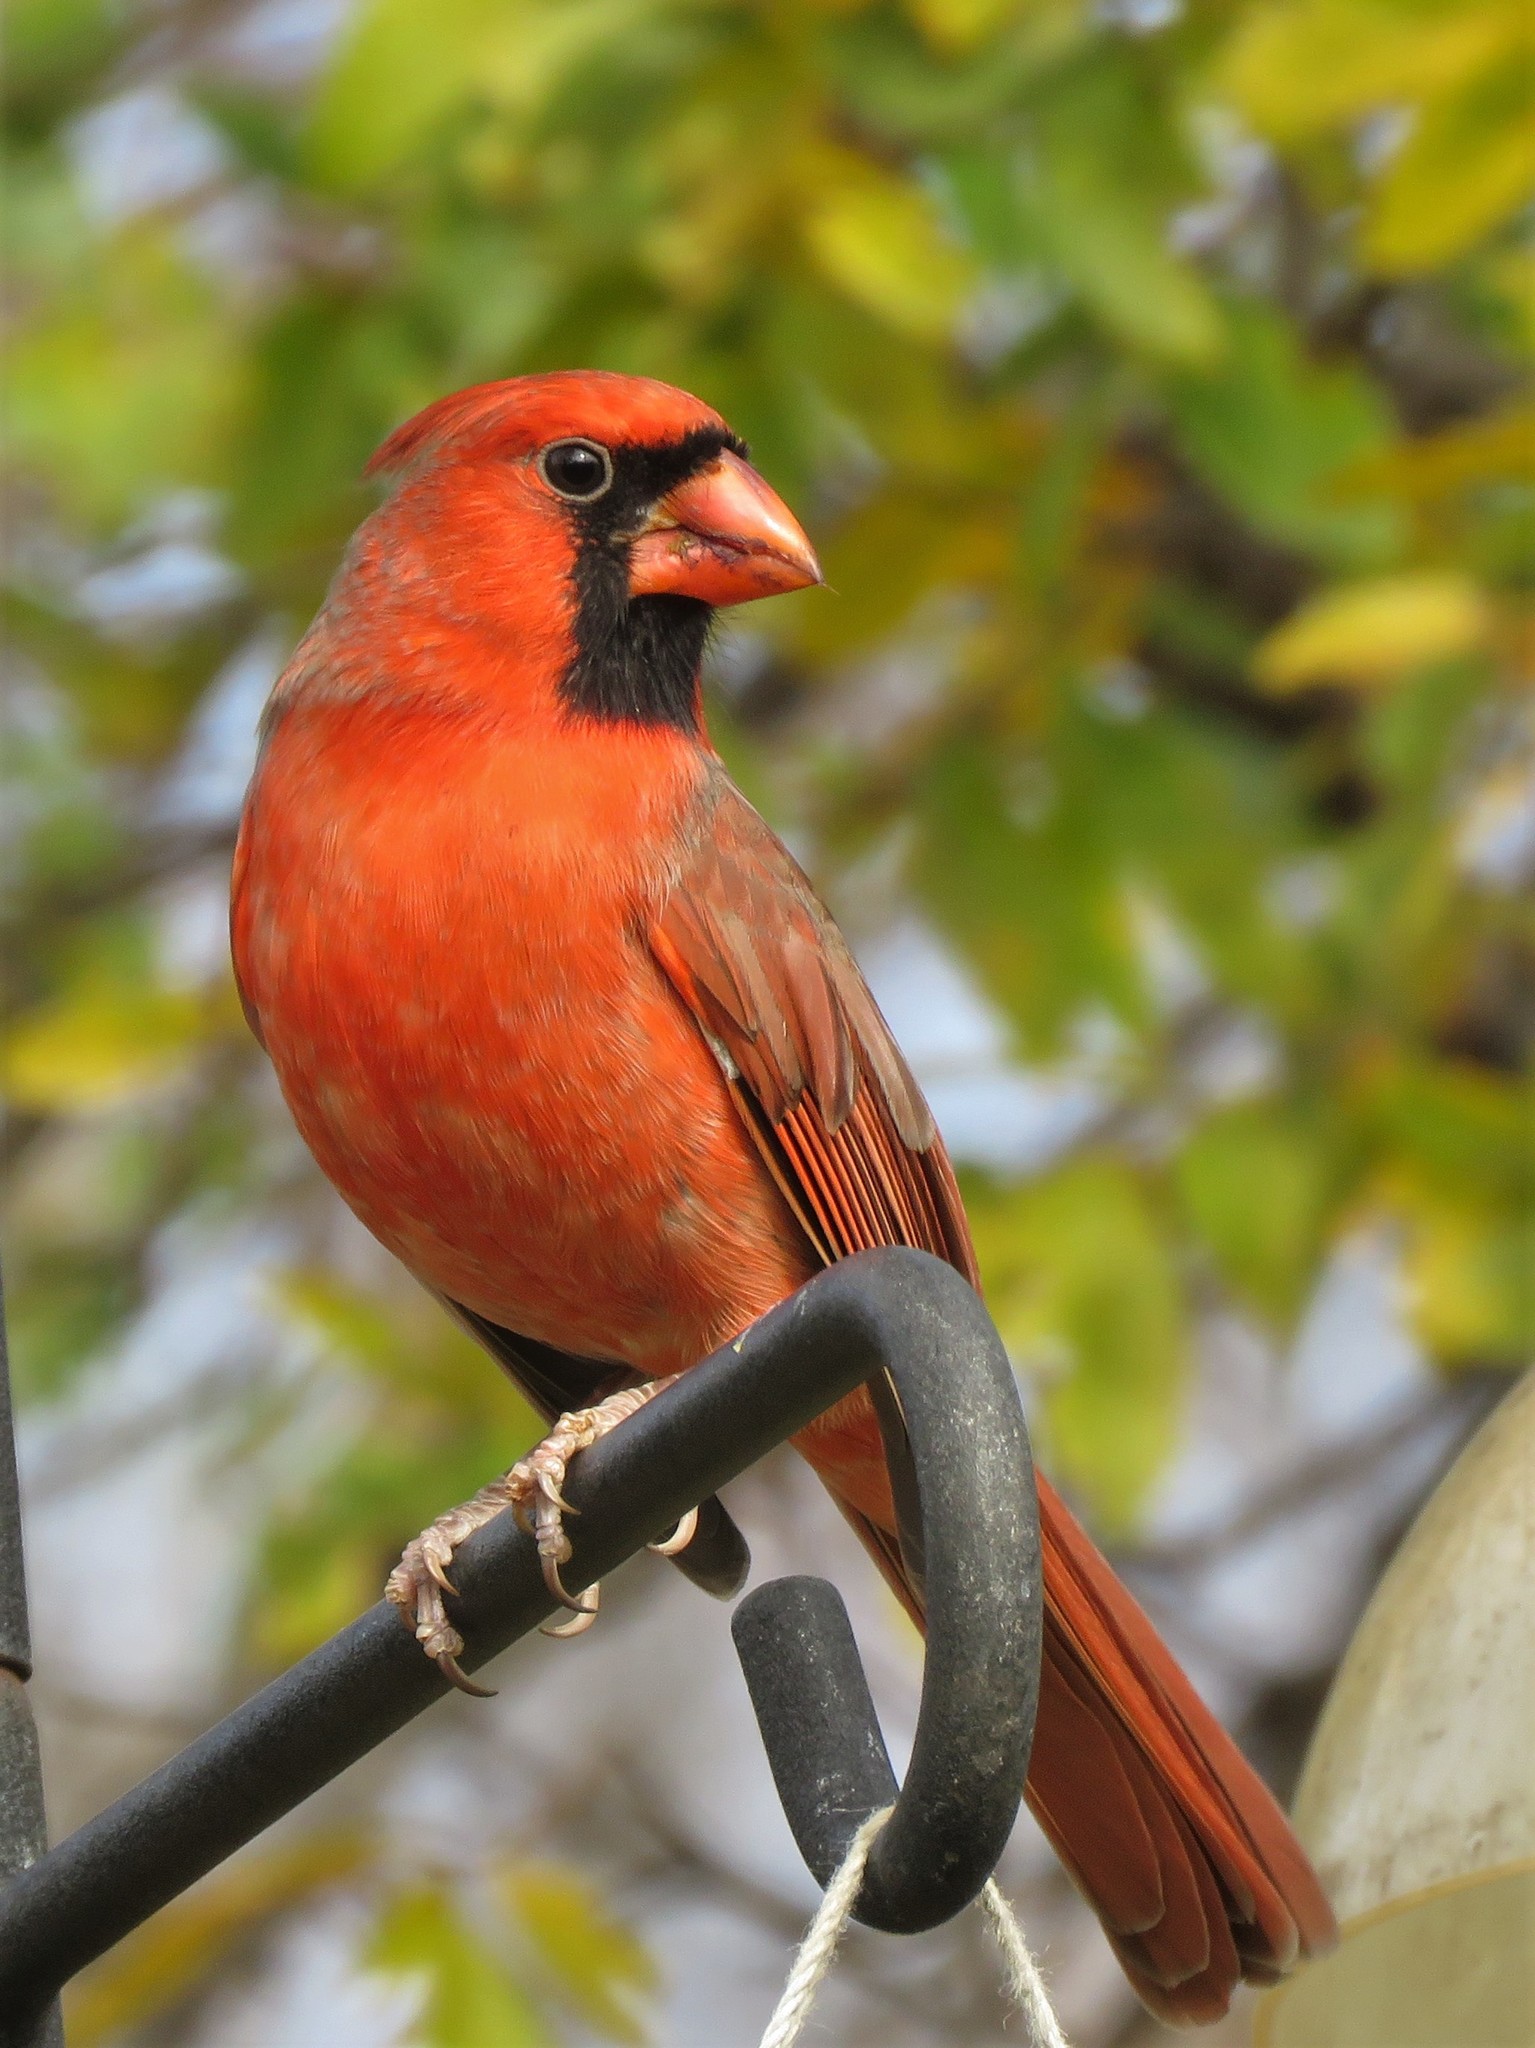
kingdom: Animalia
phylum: Chordata
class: Aves
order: Passeriformes
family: Cardinalidae
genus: Cardinalis
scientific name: Cardinalis cardinalis
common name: Northern cardinal
